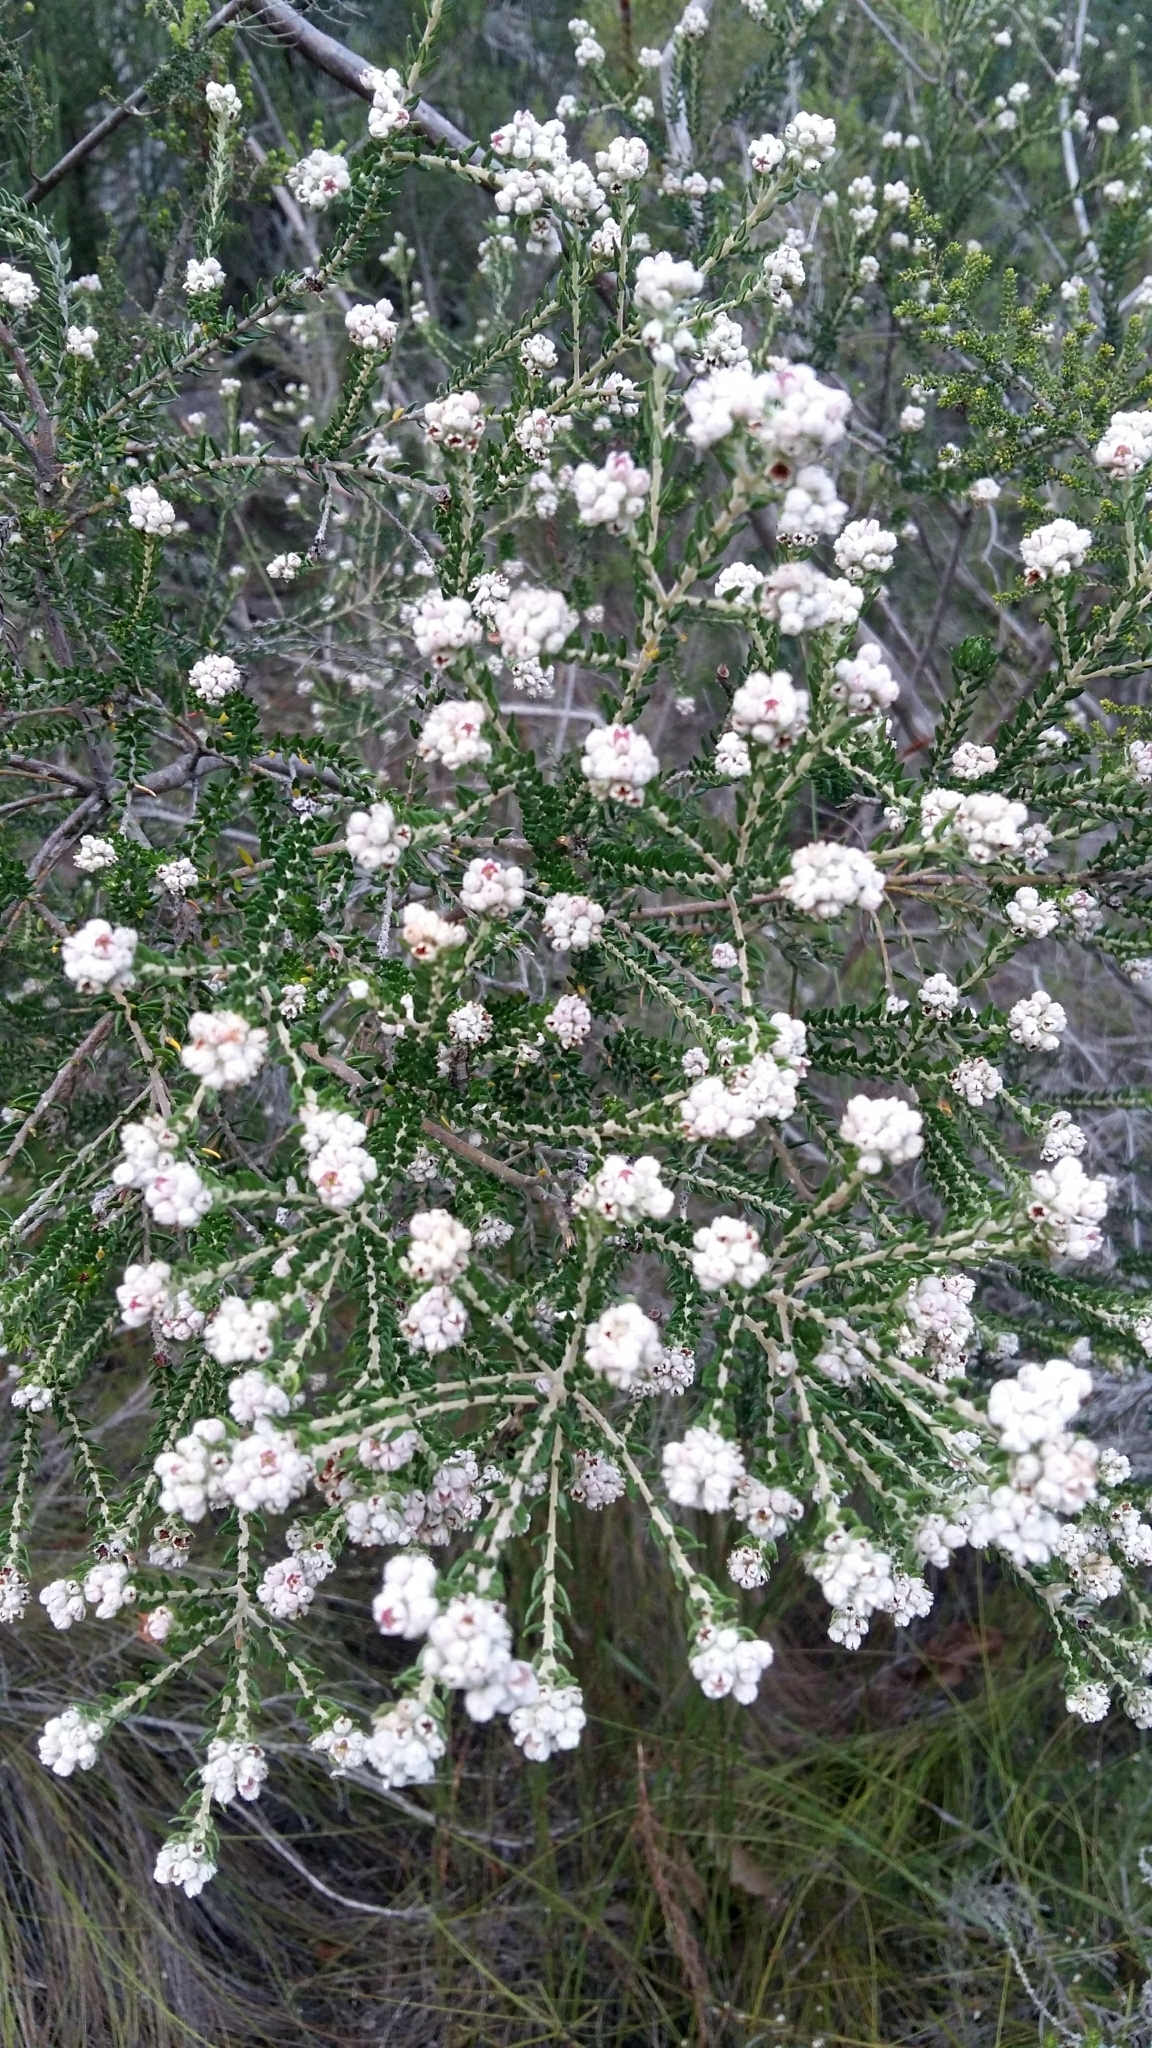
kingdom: Plantae
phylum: Tracheophyta
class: Magnoliopsida
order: Rosales
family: Rhamnaceae
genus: Phylica
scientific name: Phylica purpurea
